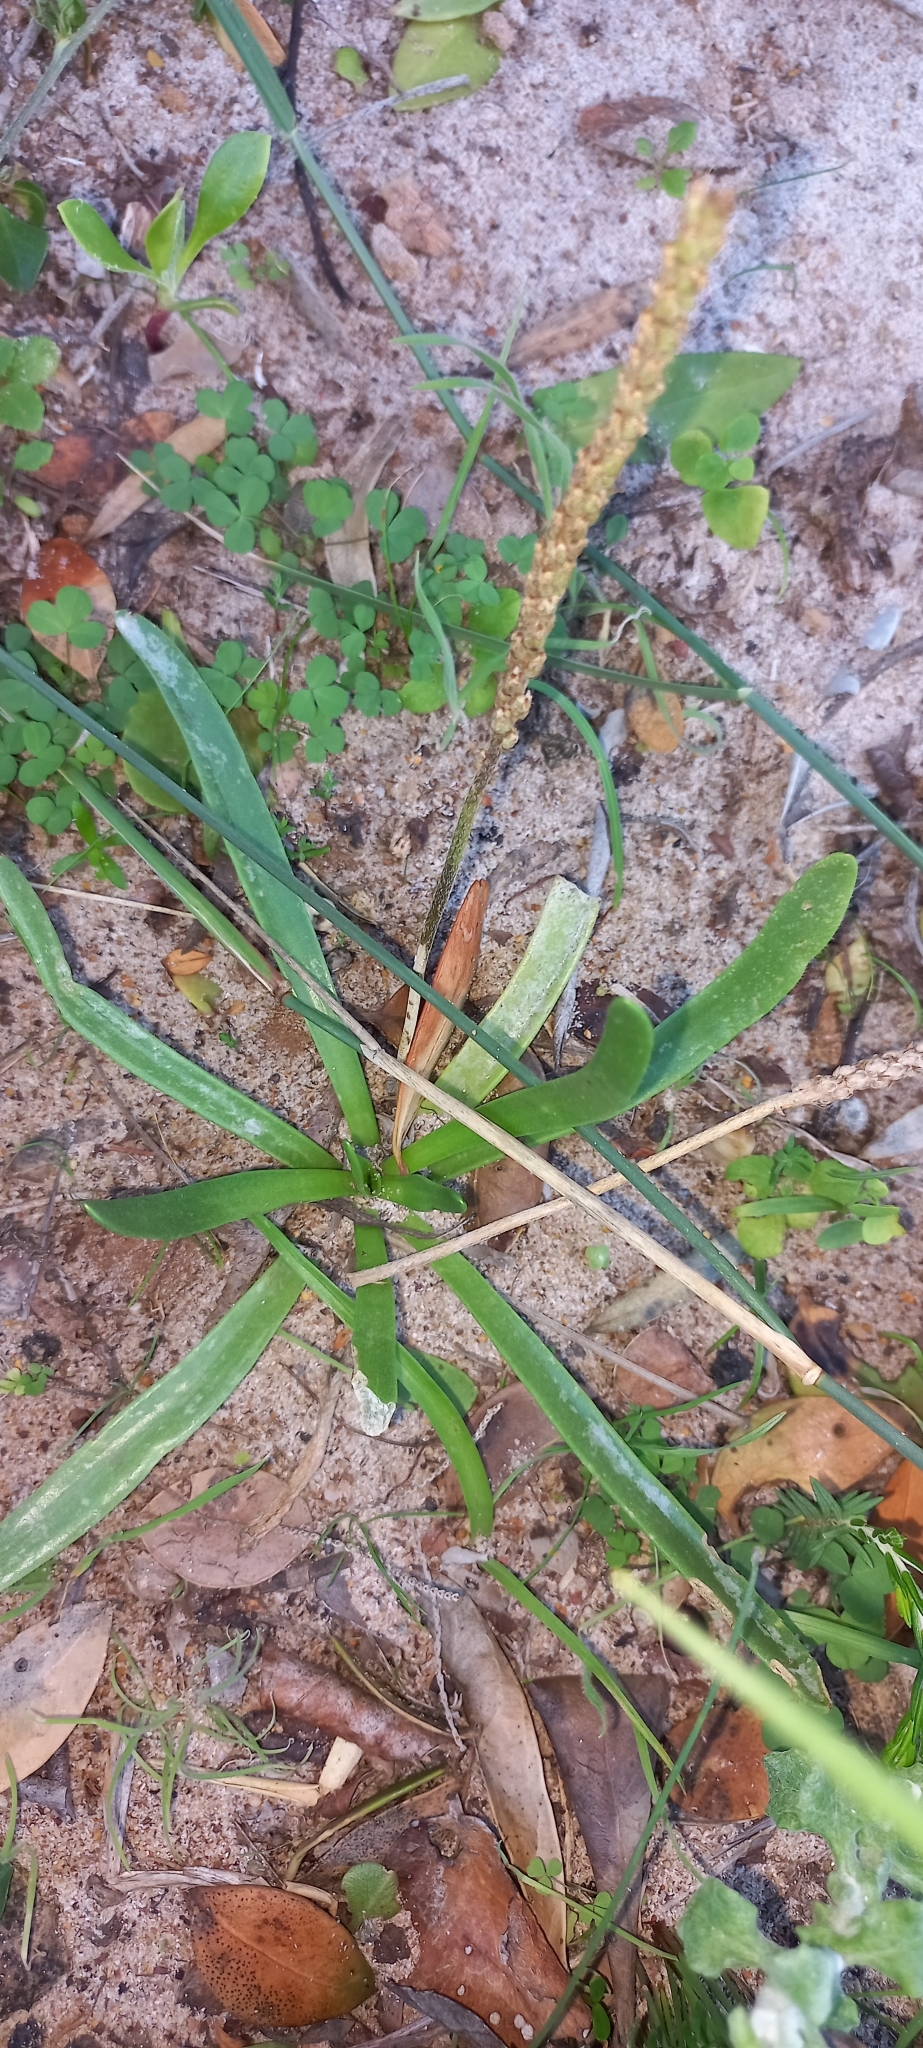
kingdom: Plantae
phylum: Tracheophyta
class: Magnoliopsida
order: Lamiales
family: Plantaginaceae
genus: Plantago
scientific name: Plantago carnosa
